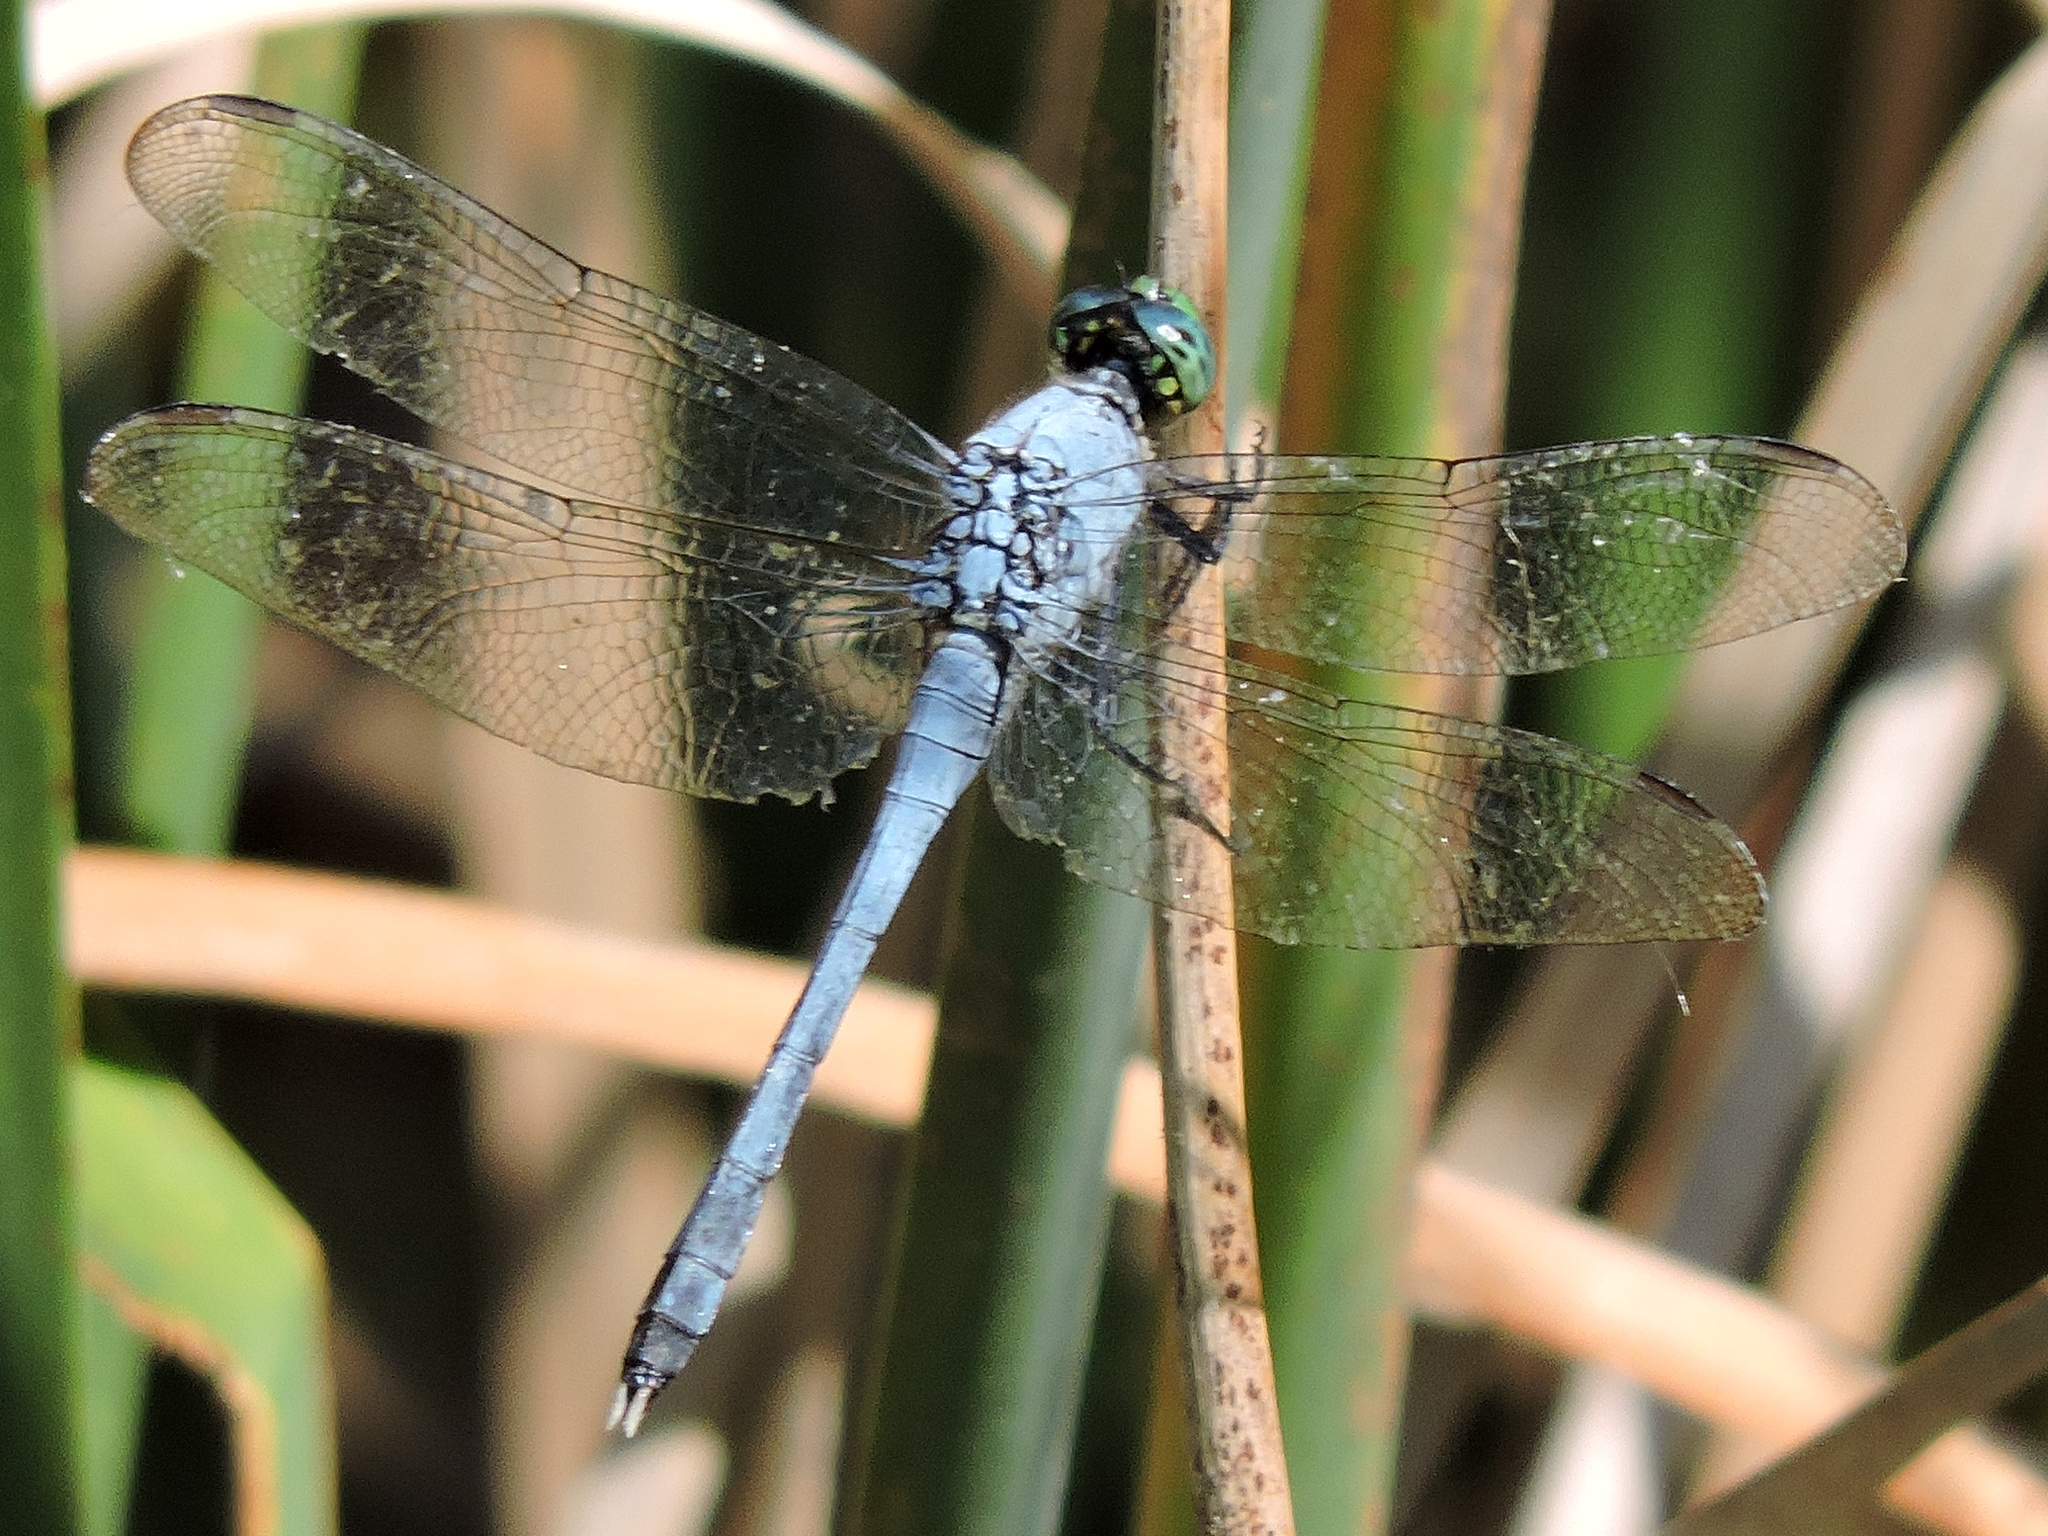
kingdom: Animalia
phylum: Arthropoda
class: Insecta
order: Odonata
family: Libellulidae
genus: Erythemis
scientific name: Erythemis simplicicollis
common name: Eastern pondhawk
